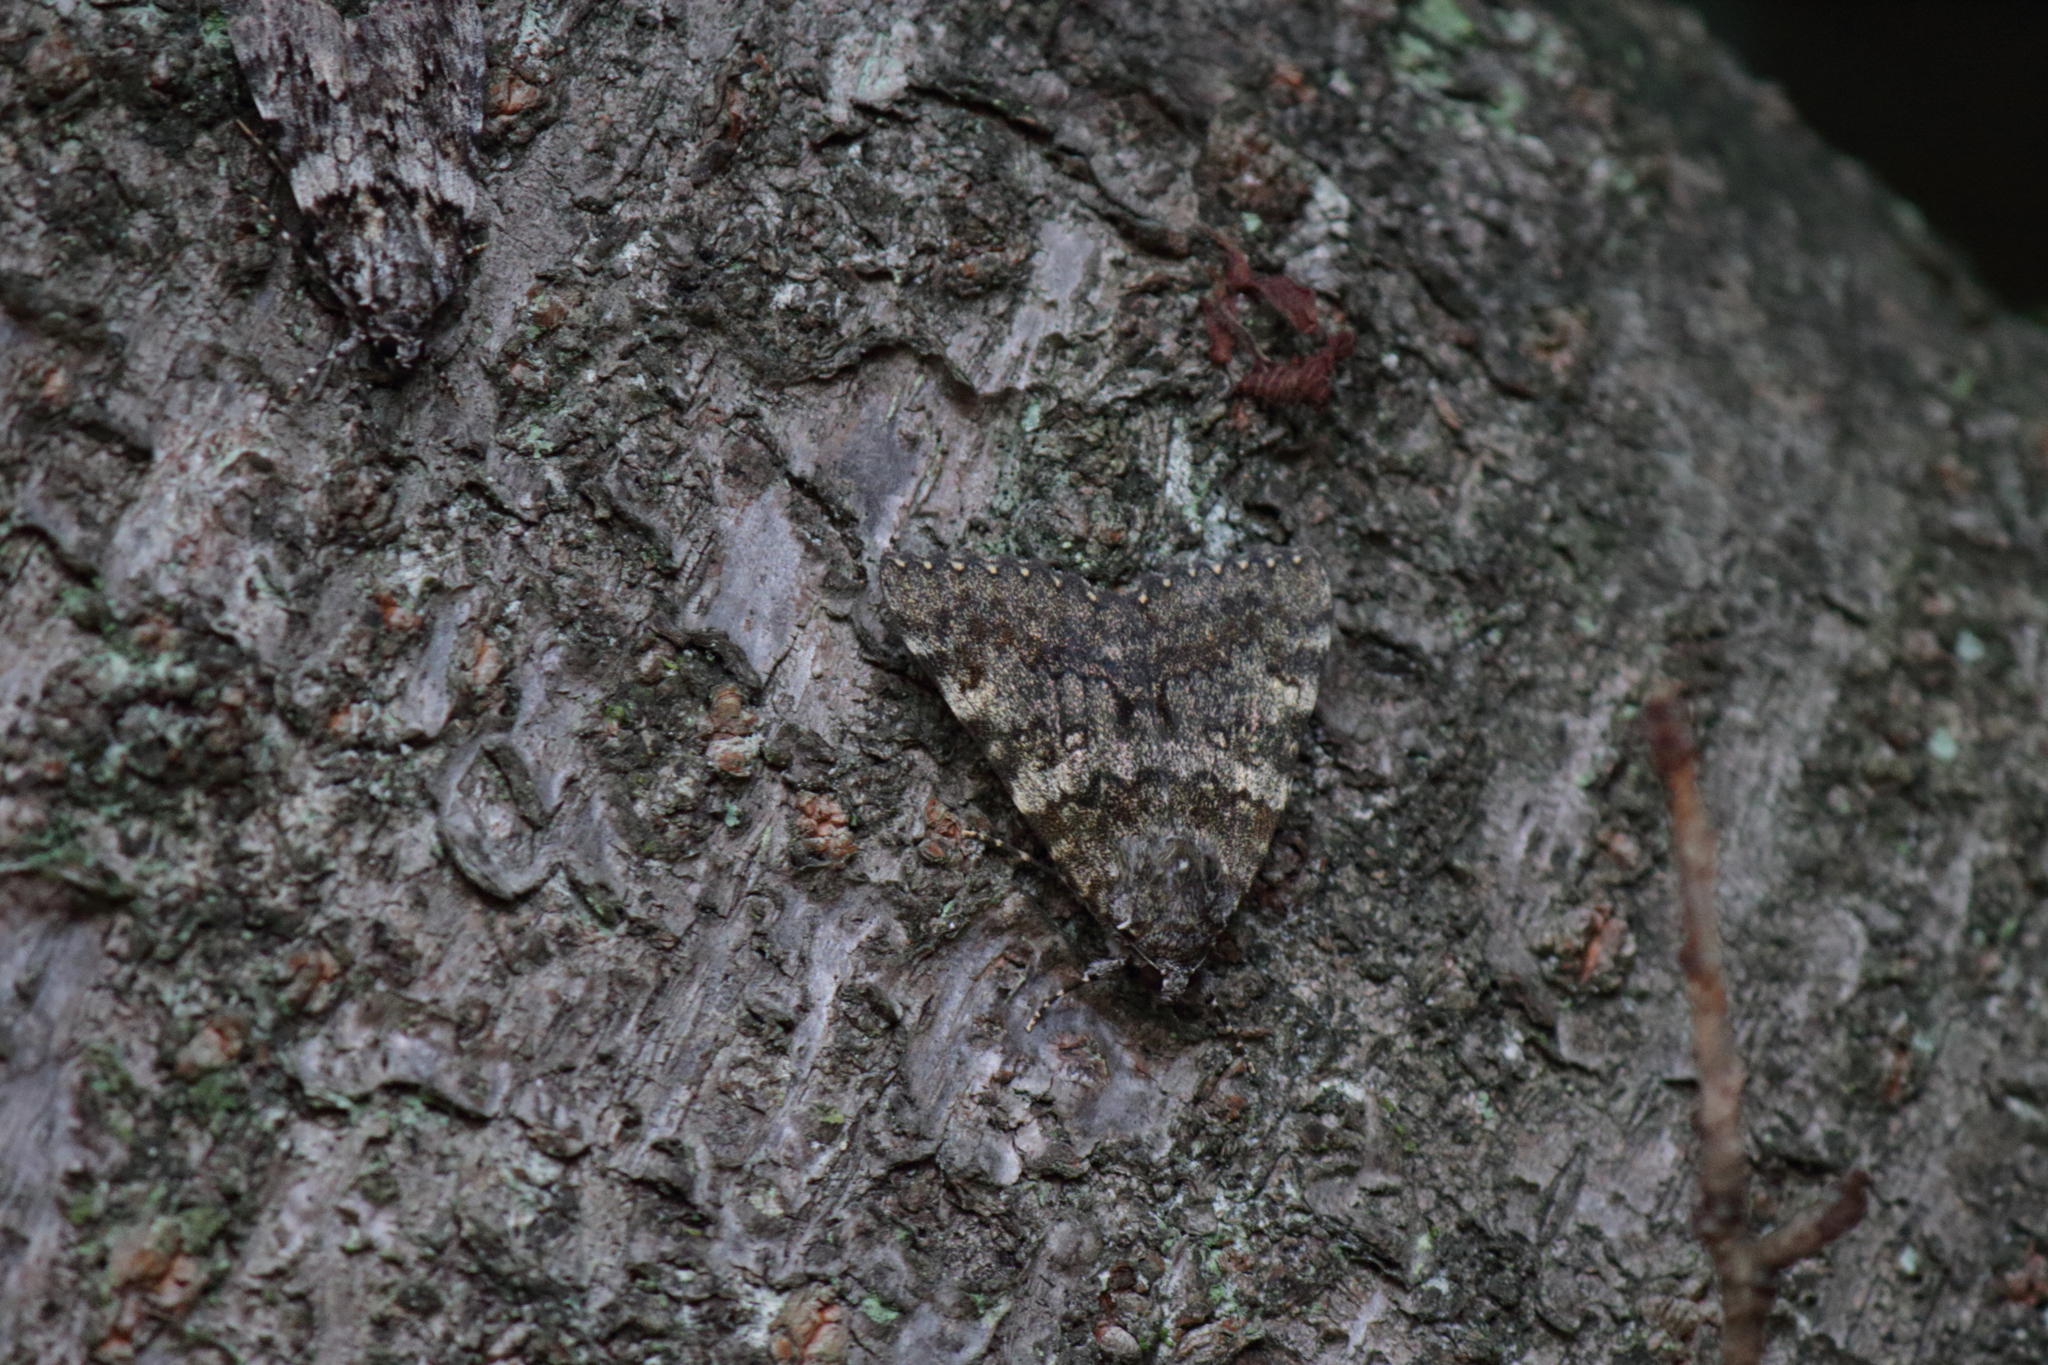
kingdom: Animalia
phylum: Arthropoda
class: Insecta
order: Lepidoptera
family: Erebidae
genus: Catocala
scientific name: Catocala kuangtungensis
